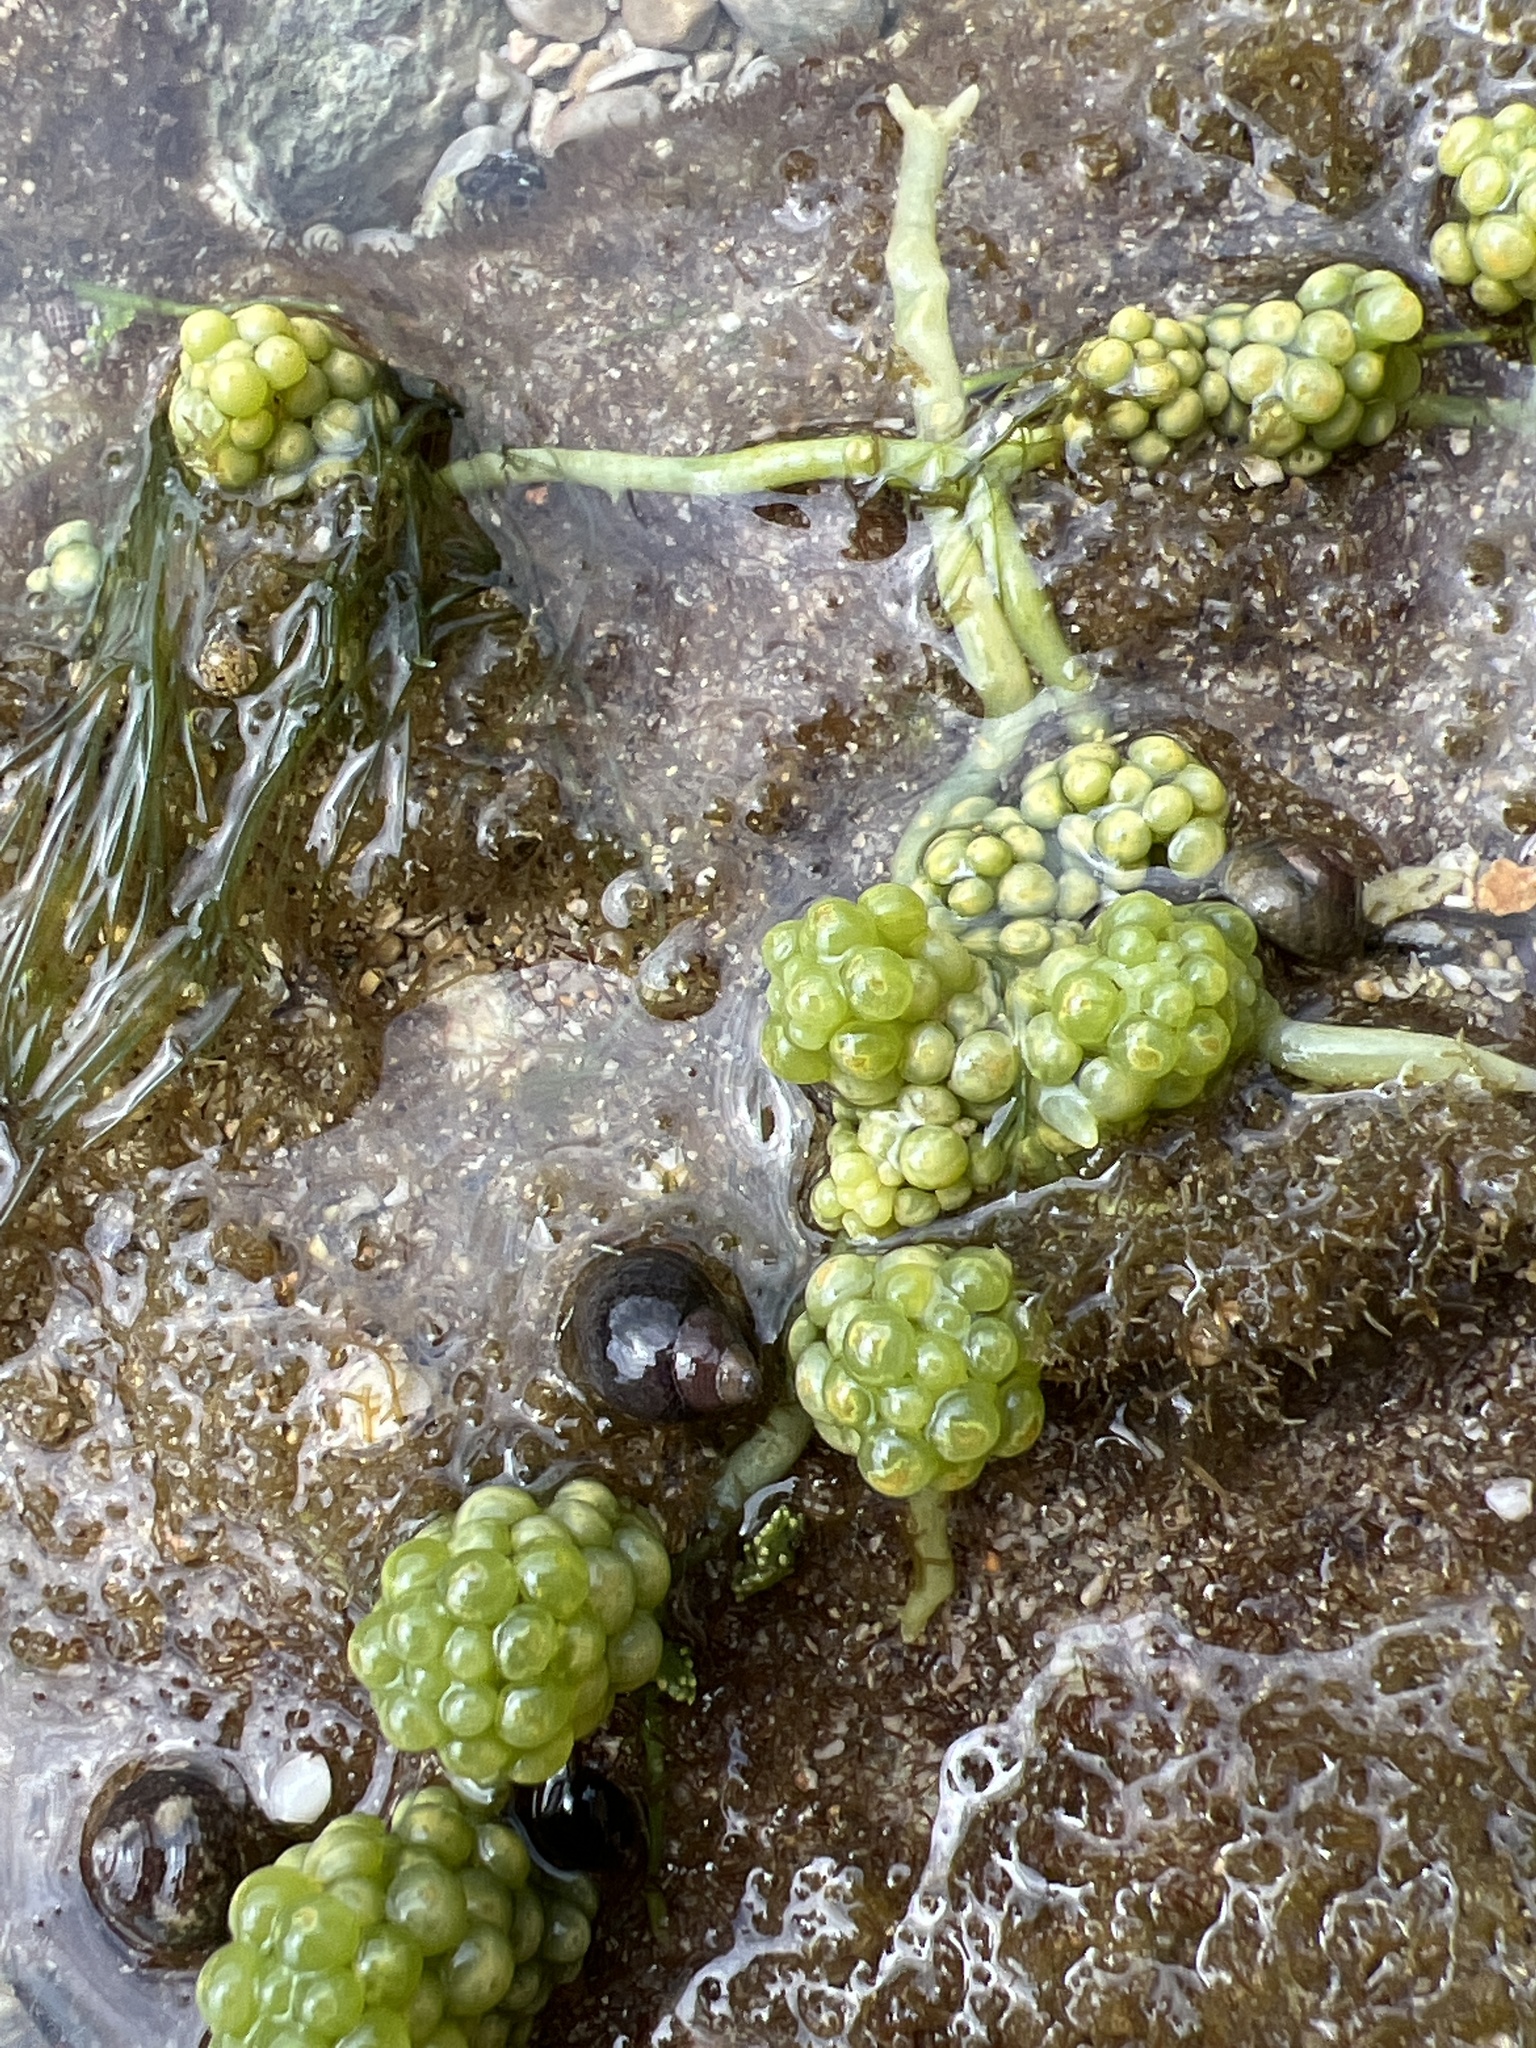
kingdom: Plantae
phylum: Chlorophyta
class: Ulvophyceae
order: Bryopsidales
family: Caulerpaceae
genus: Caulerpa
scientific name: Caulerpa racemosa
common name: Green grape algae
